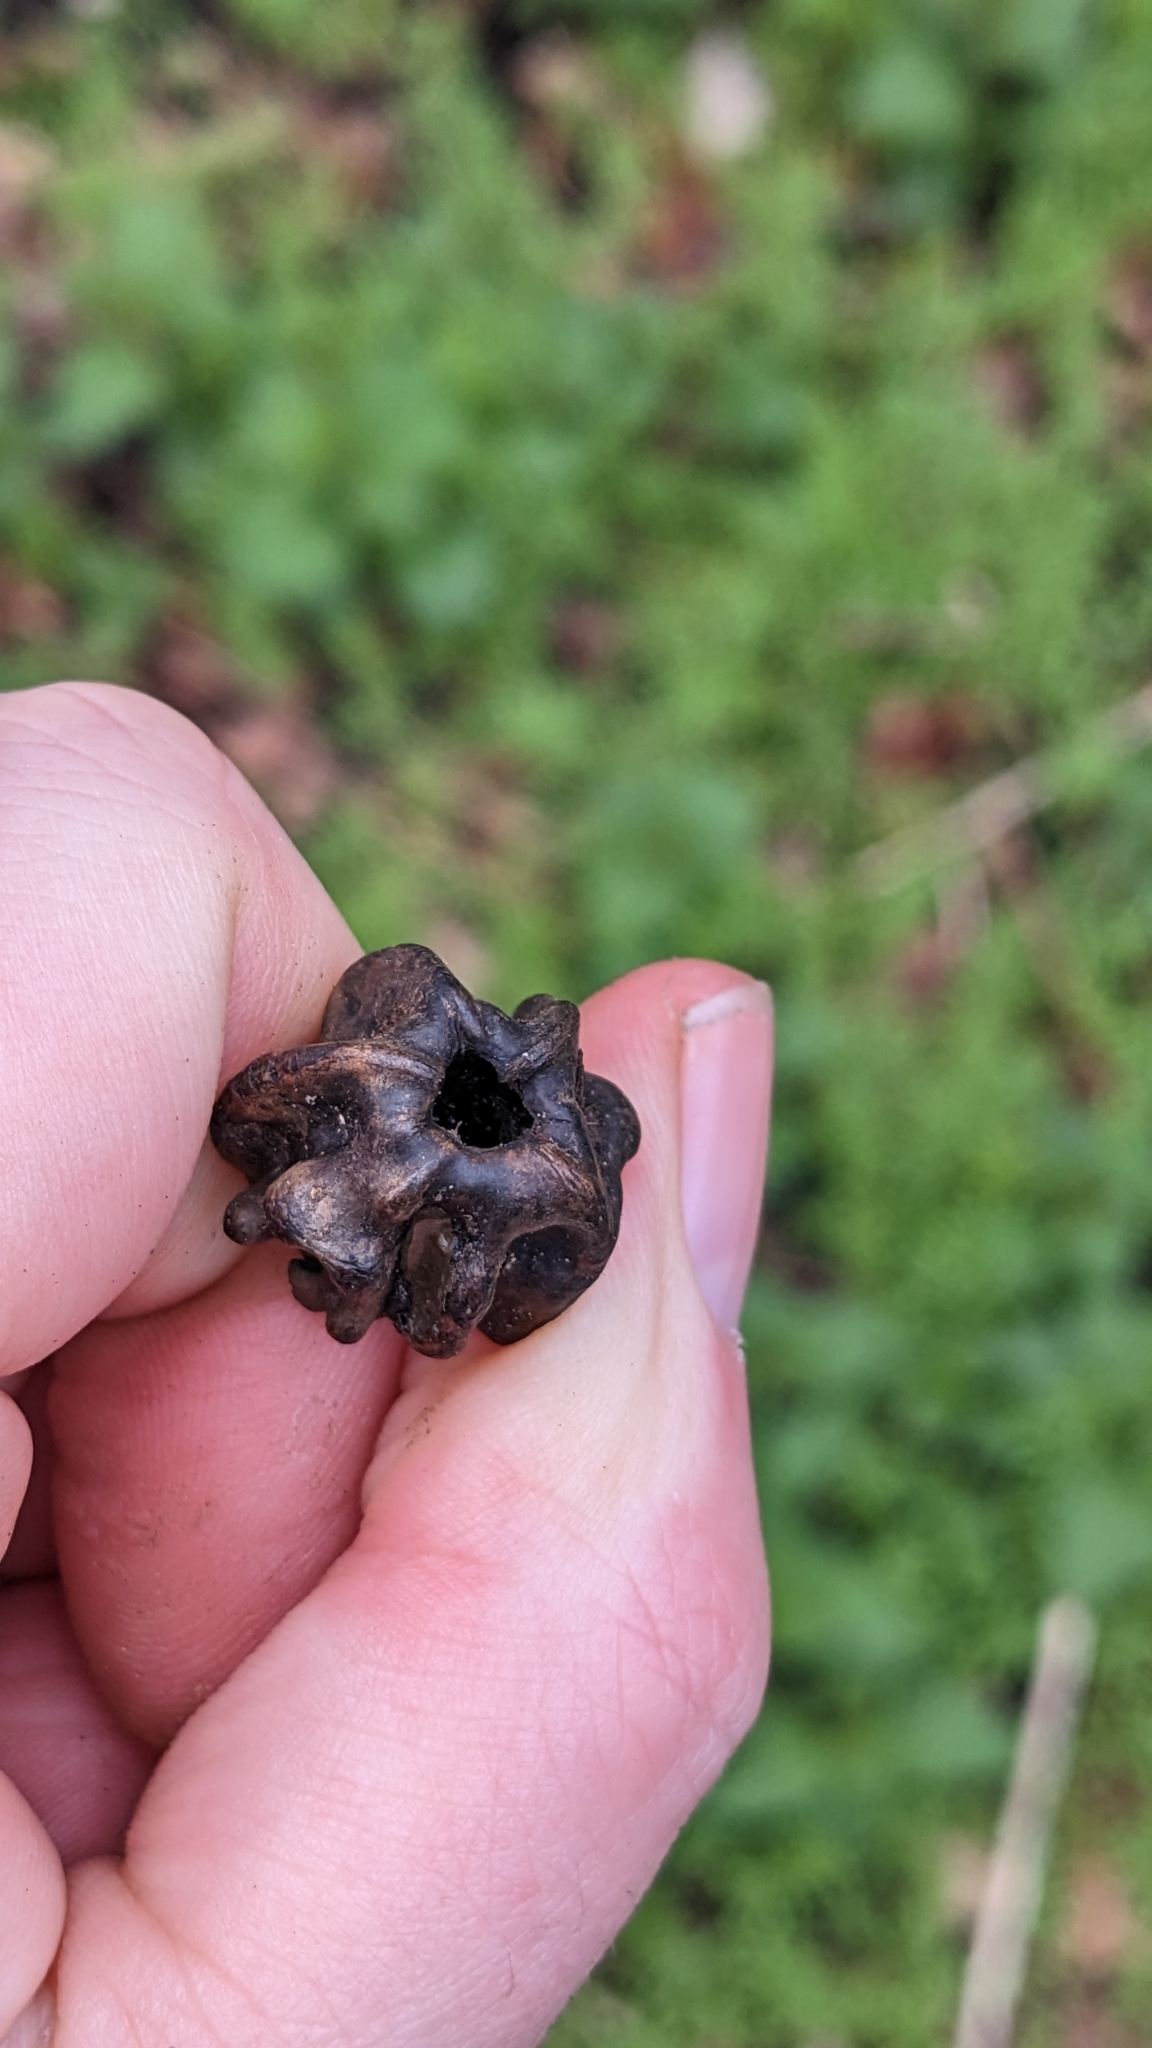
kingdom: Animalia
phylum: Arthropoda
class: Insecta
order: Hymenoptera
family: Cynipidae
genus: Andricus
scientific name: Andricus quercuscalicis
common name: Knopper gall
